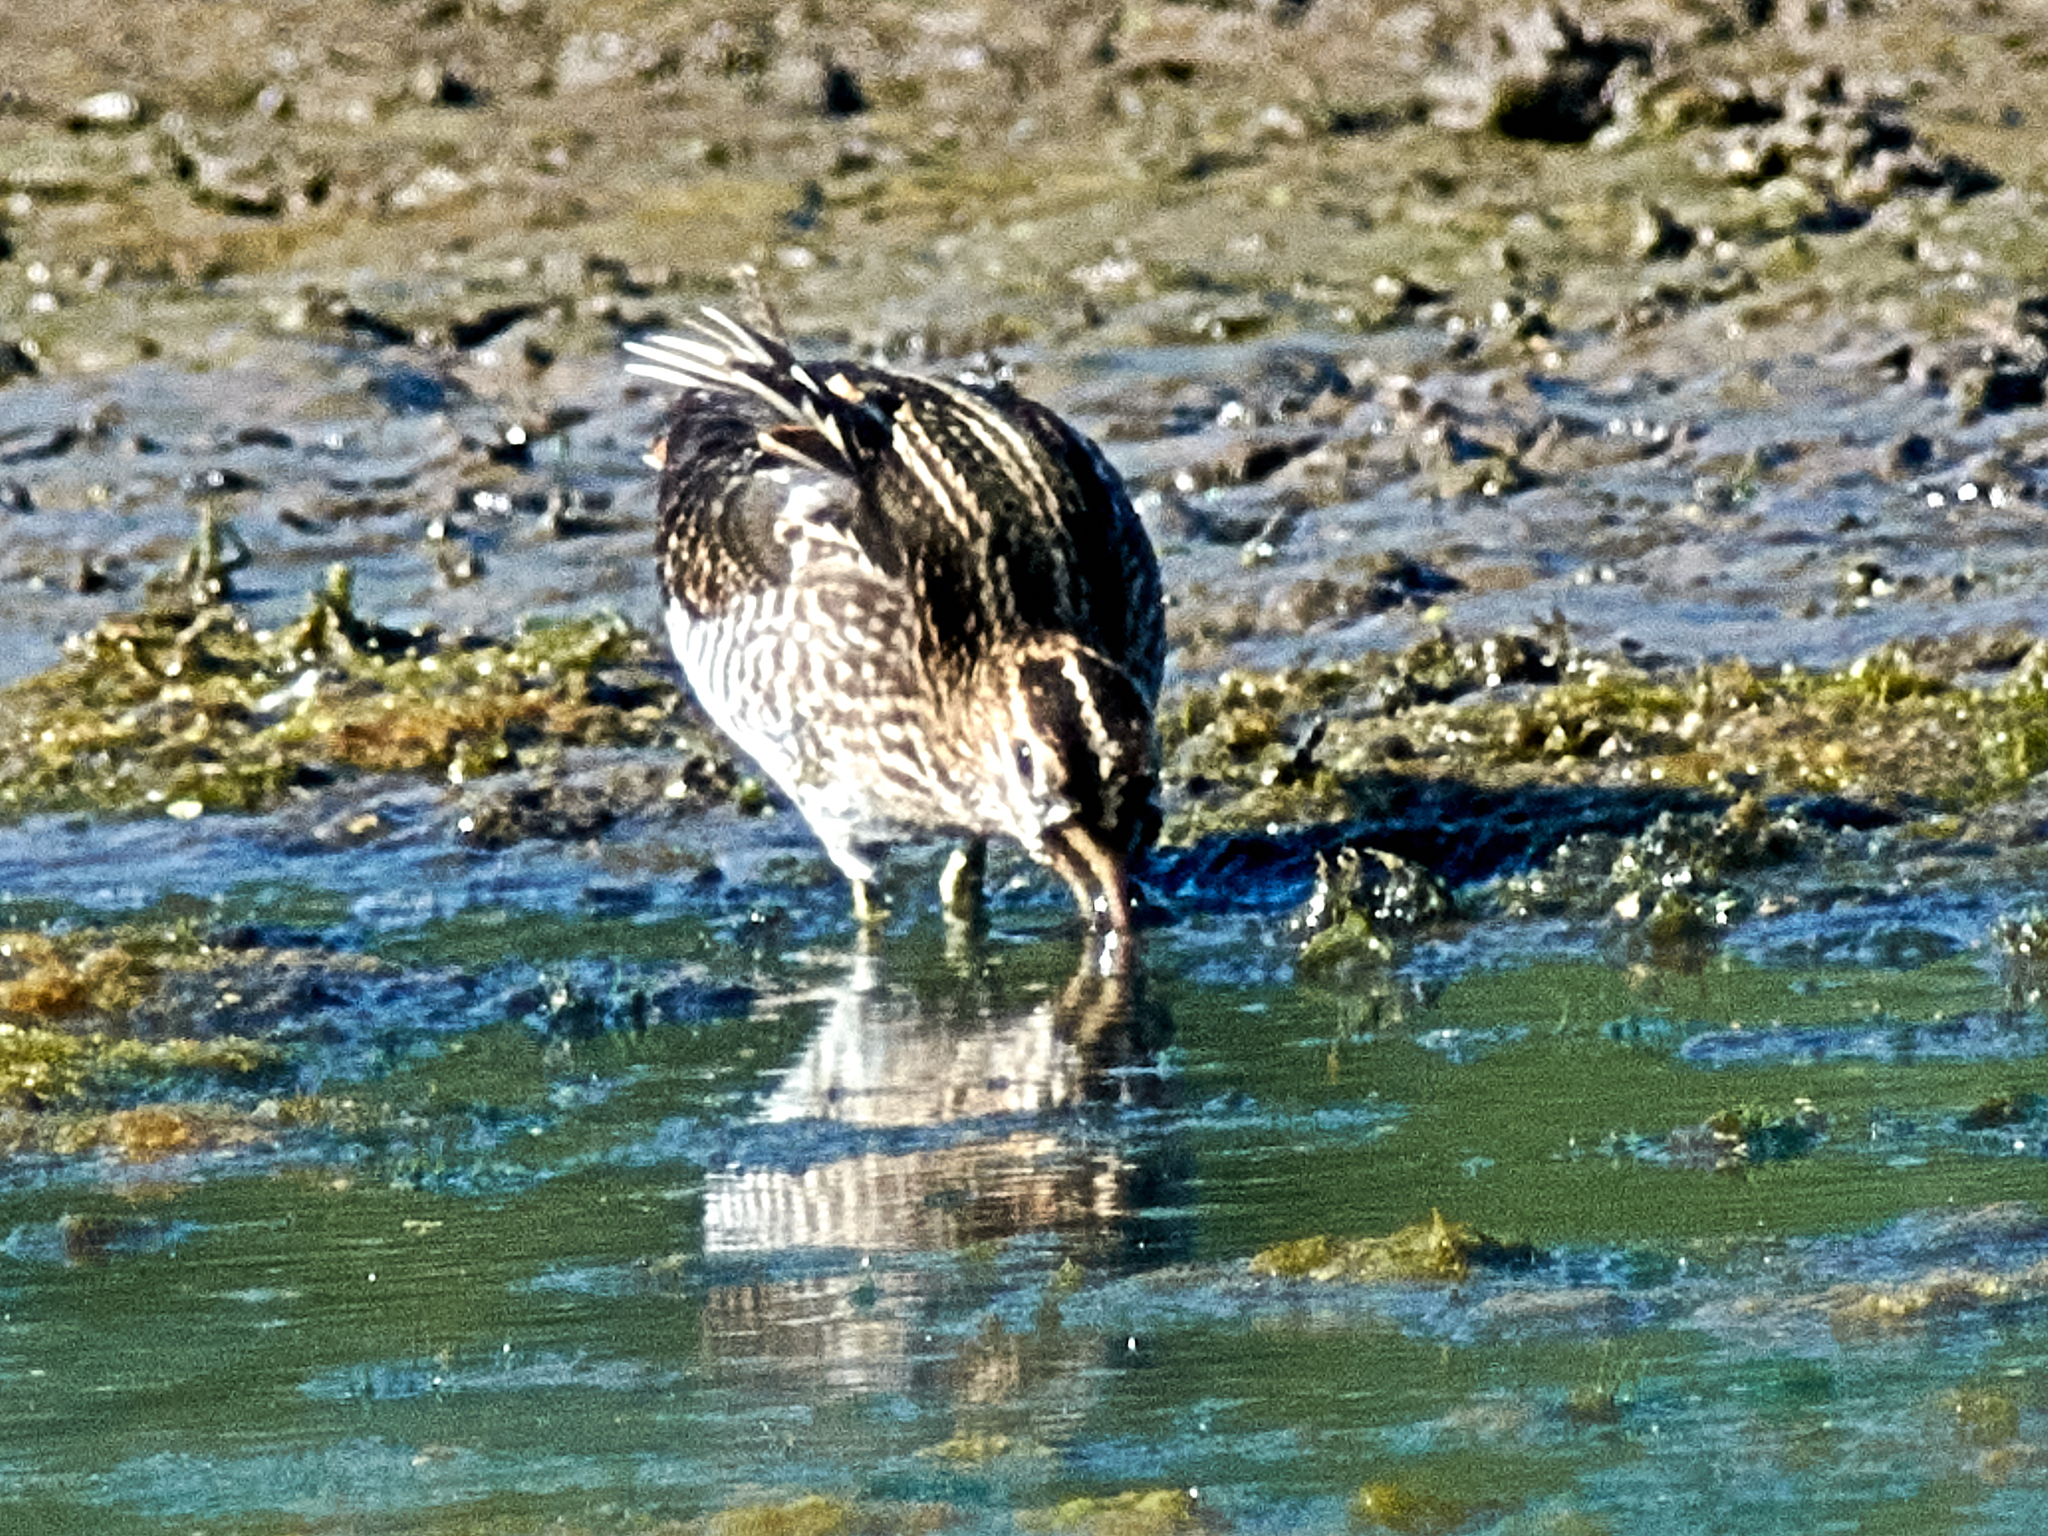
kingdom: Animalia
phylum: Chordata
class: Aves
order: Charadriiformes
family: Scolopacidae
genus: Gallinago
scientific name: Gallinago gallinago
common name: Common snipe
